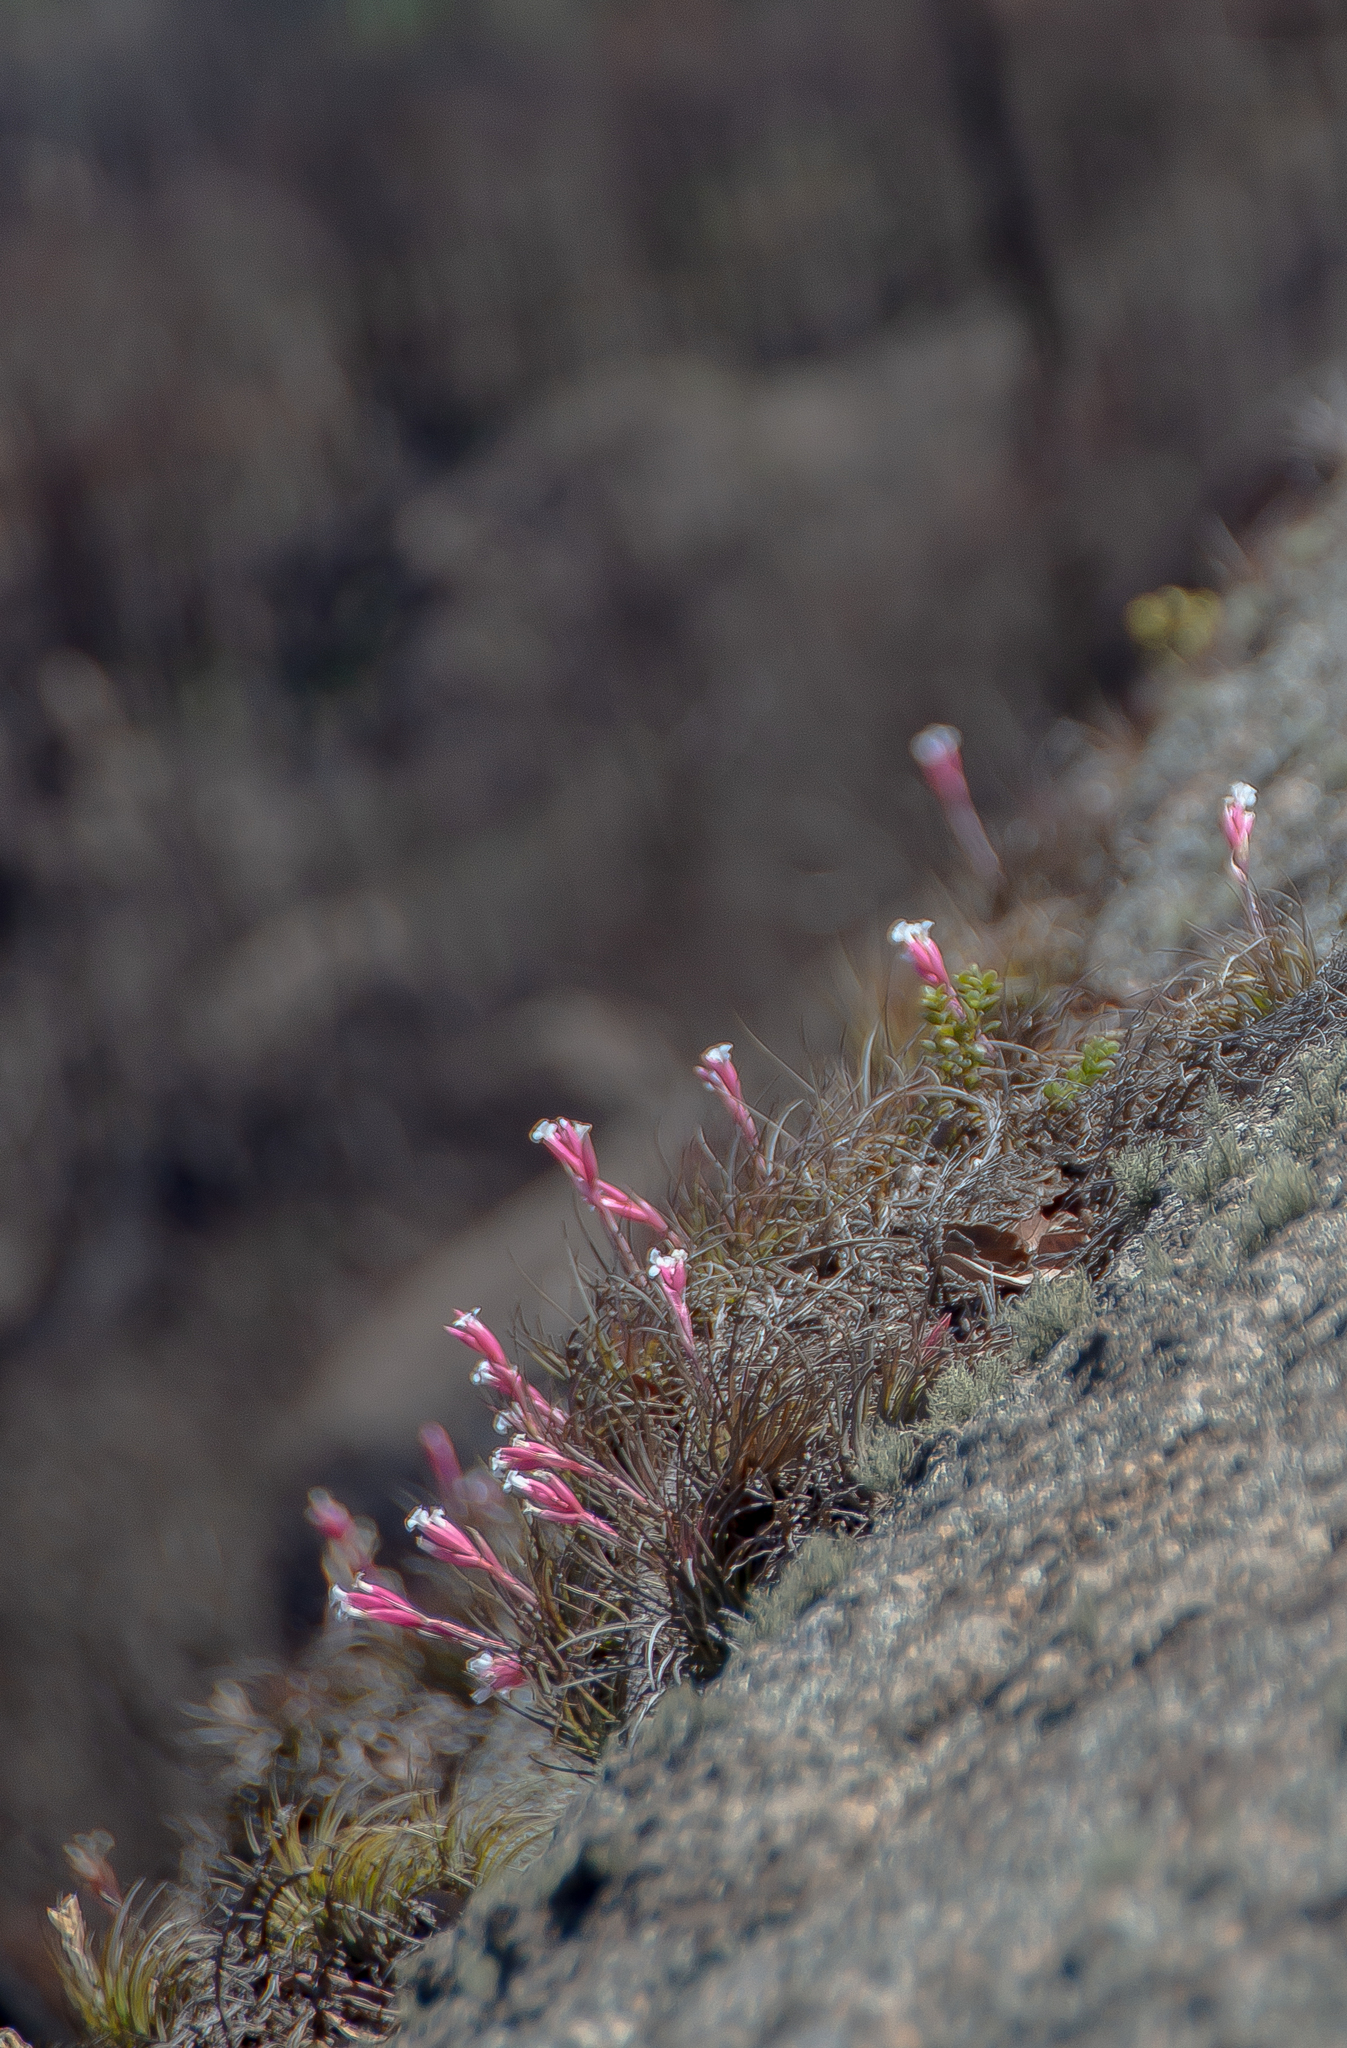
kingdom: Plantae
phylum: Tracheophyta
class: Liliopsida
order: Poales
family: Bromeliaceae
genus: Tillandsia
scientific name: Tillandsia tenuifolia
